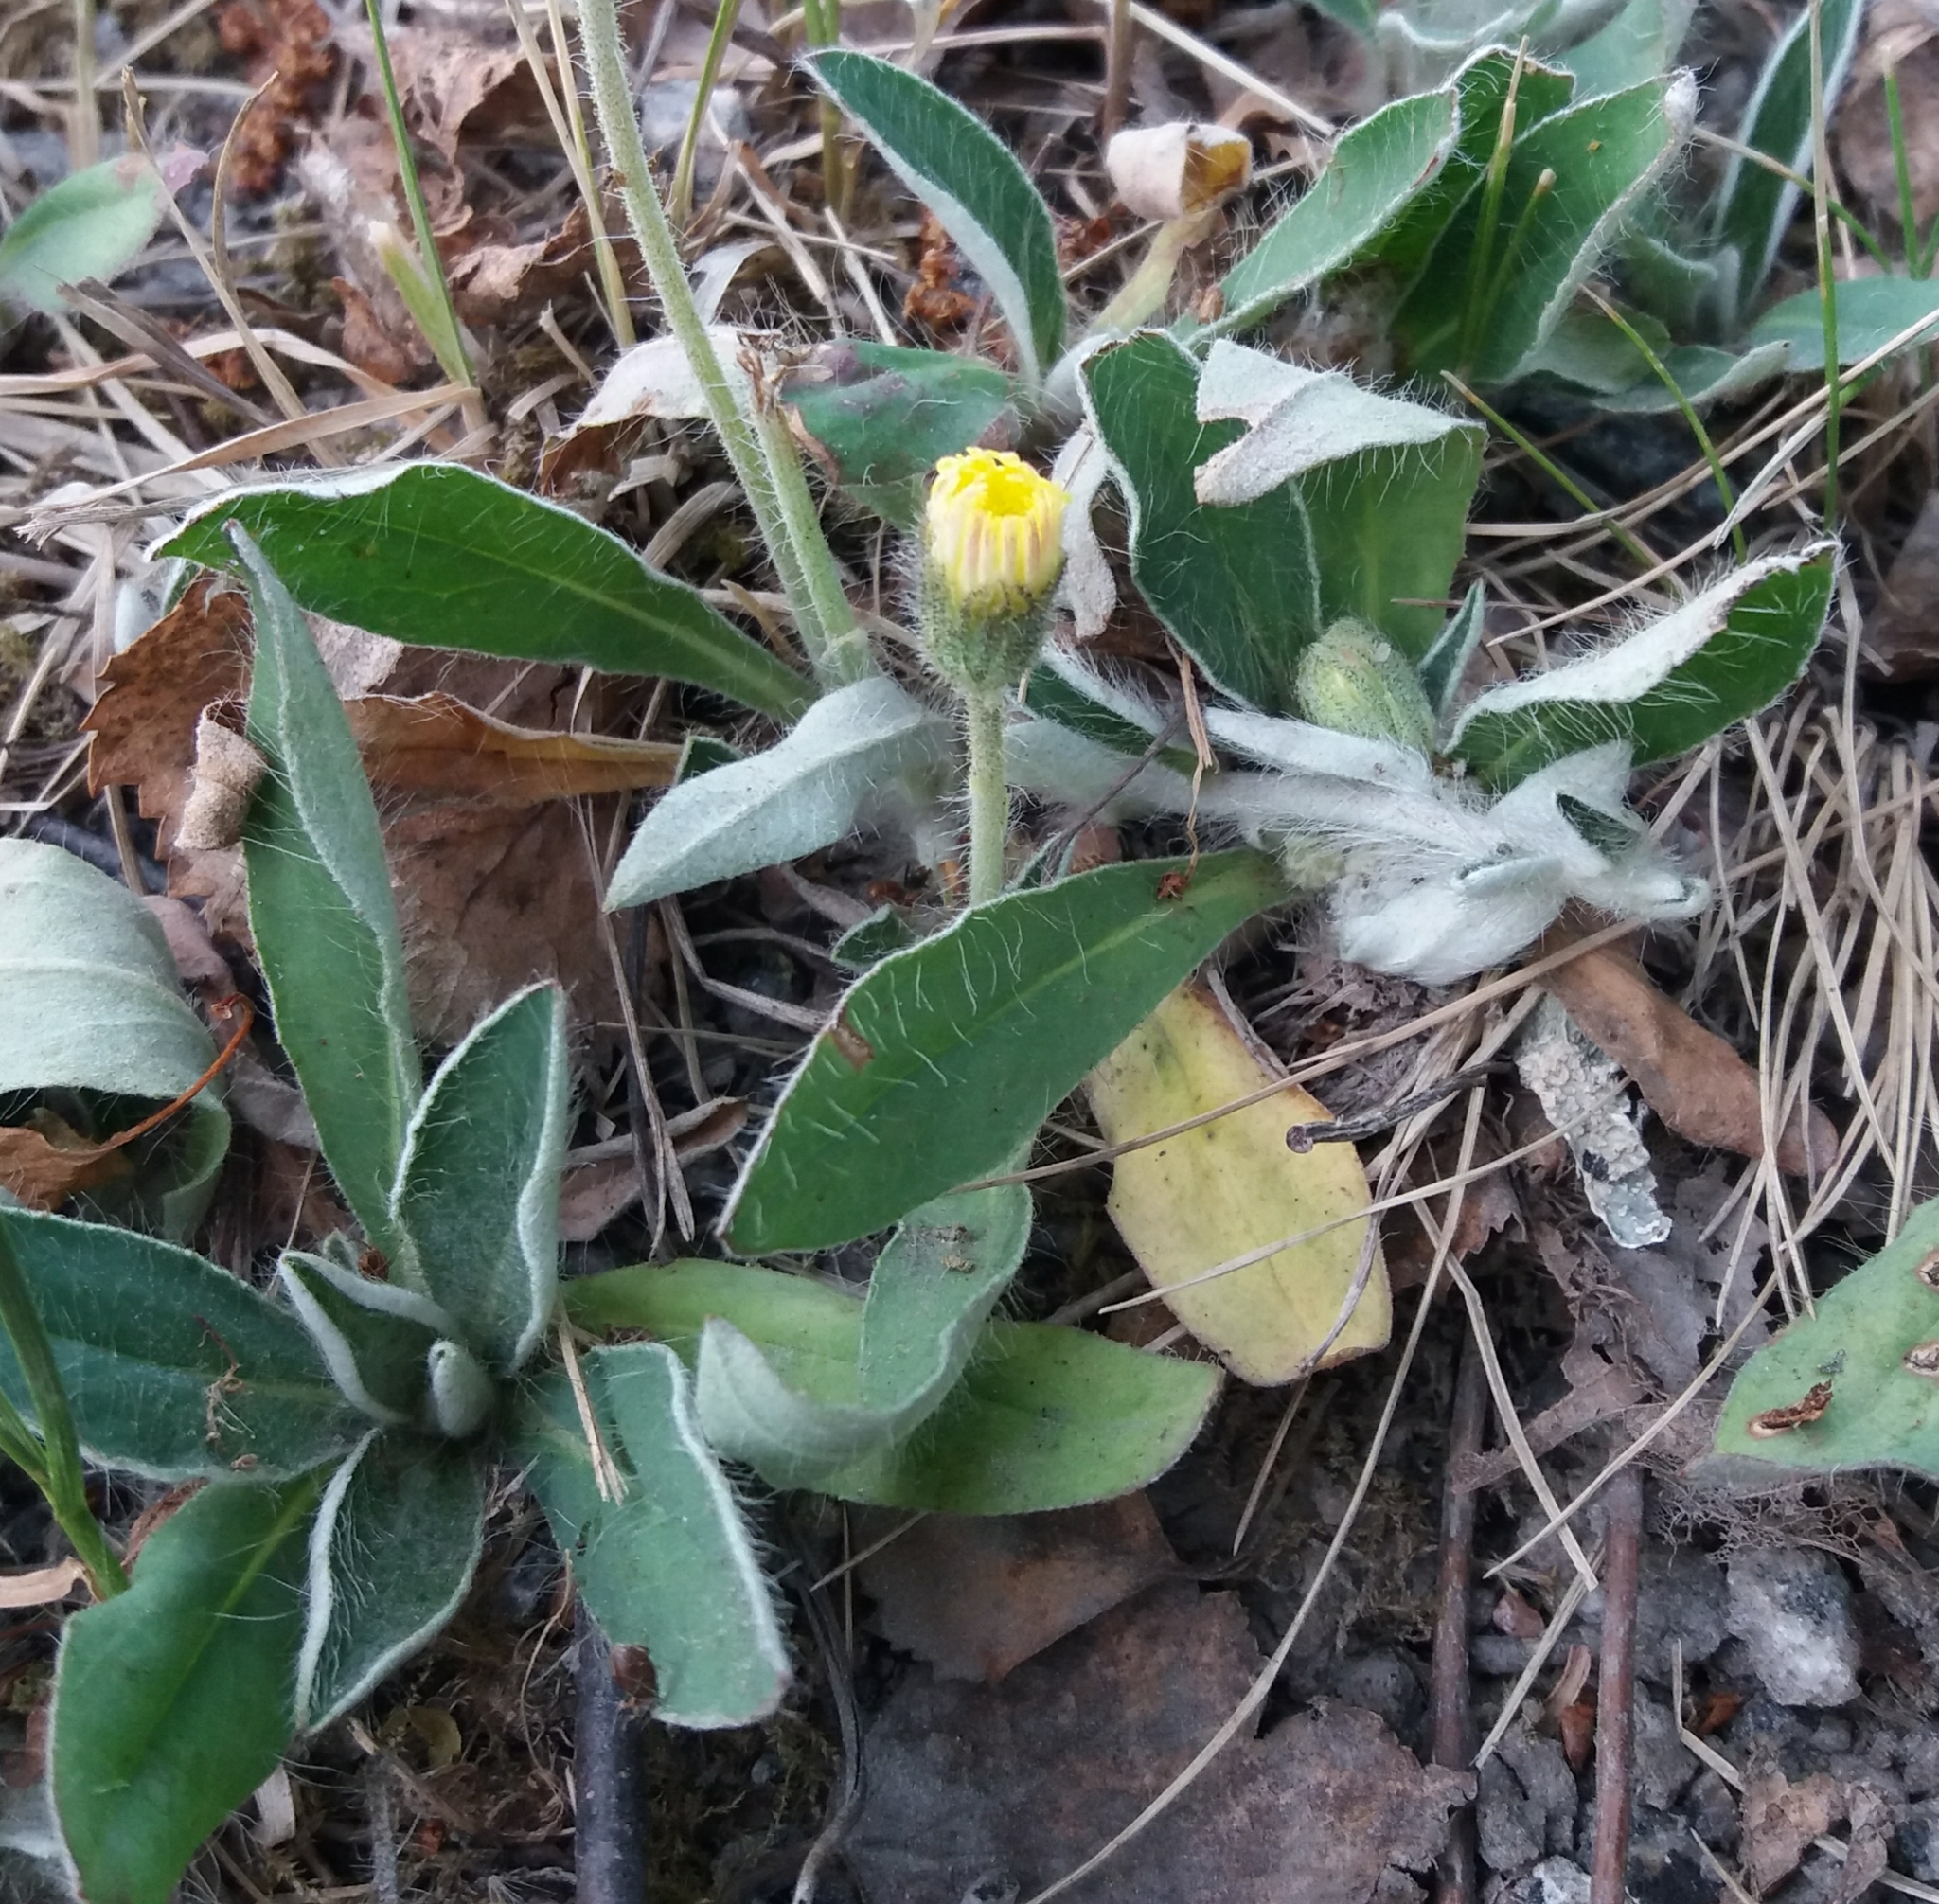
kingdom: Plantae
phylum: Tracheophyta
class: Magnoliopsida
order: Asterales
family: Asteraceae
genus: Pilosella
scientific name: Pilosella officinarum
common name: Mouse-ear hawkweed
